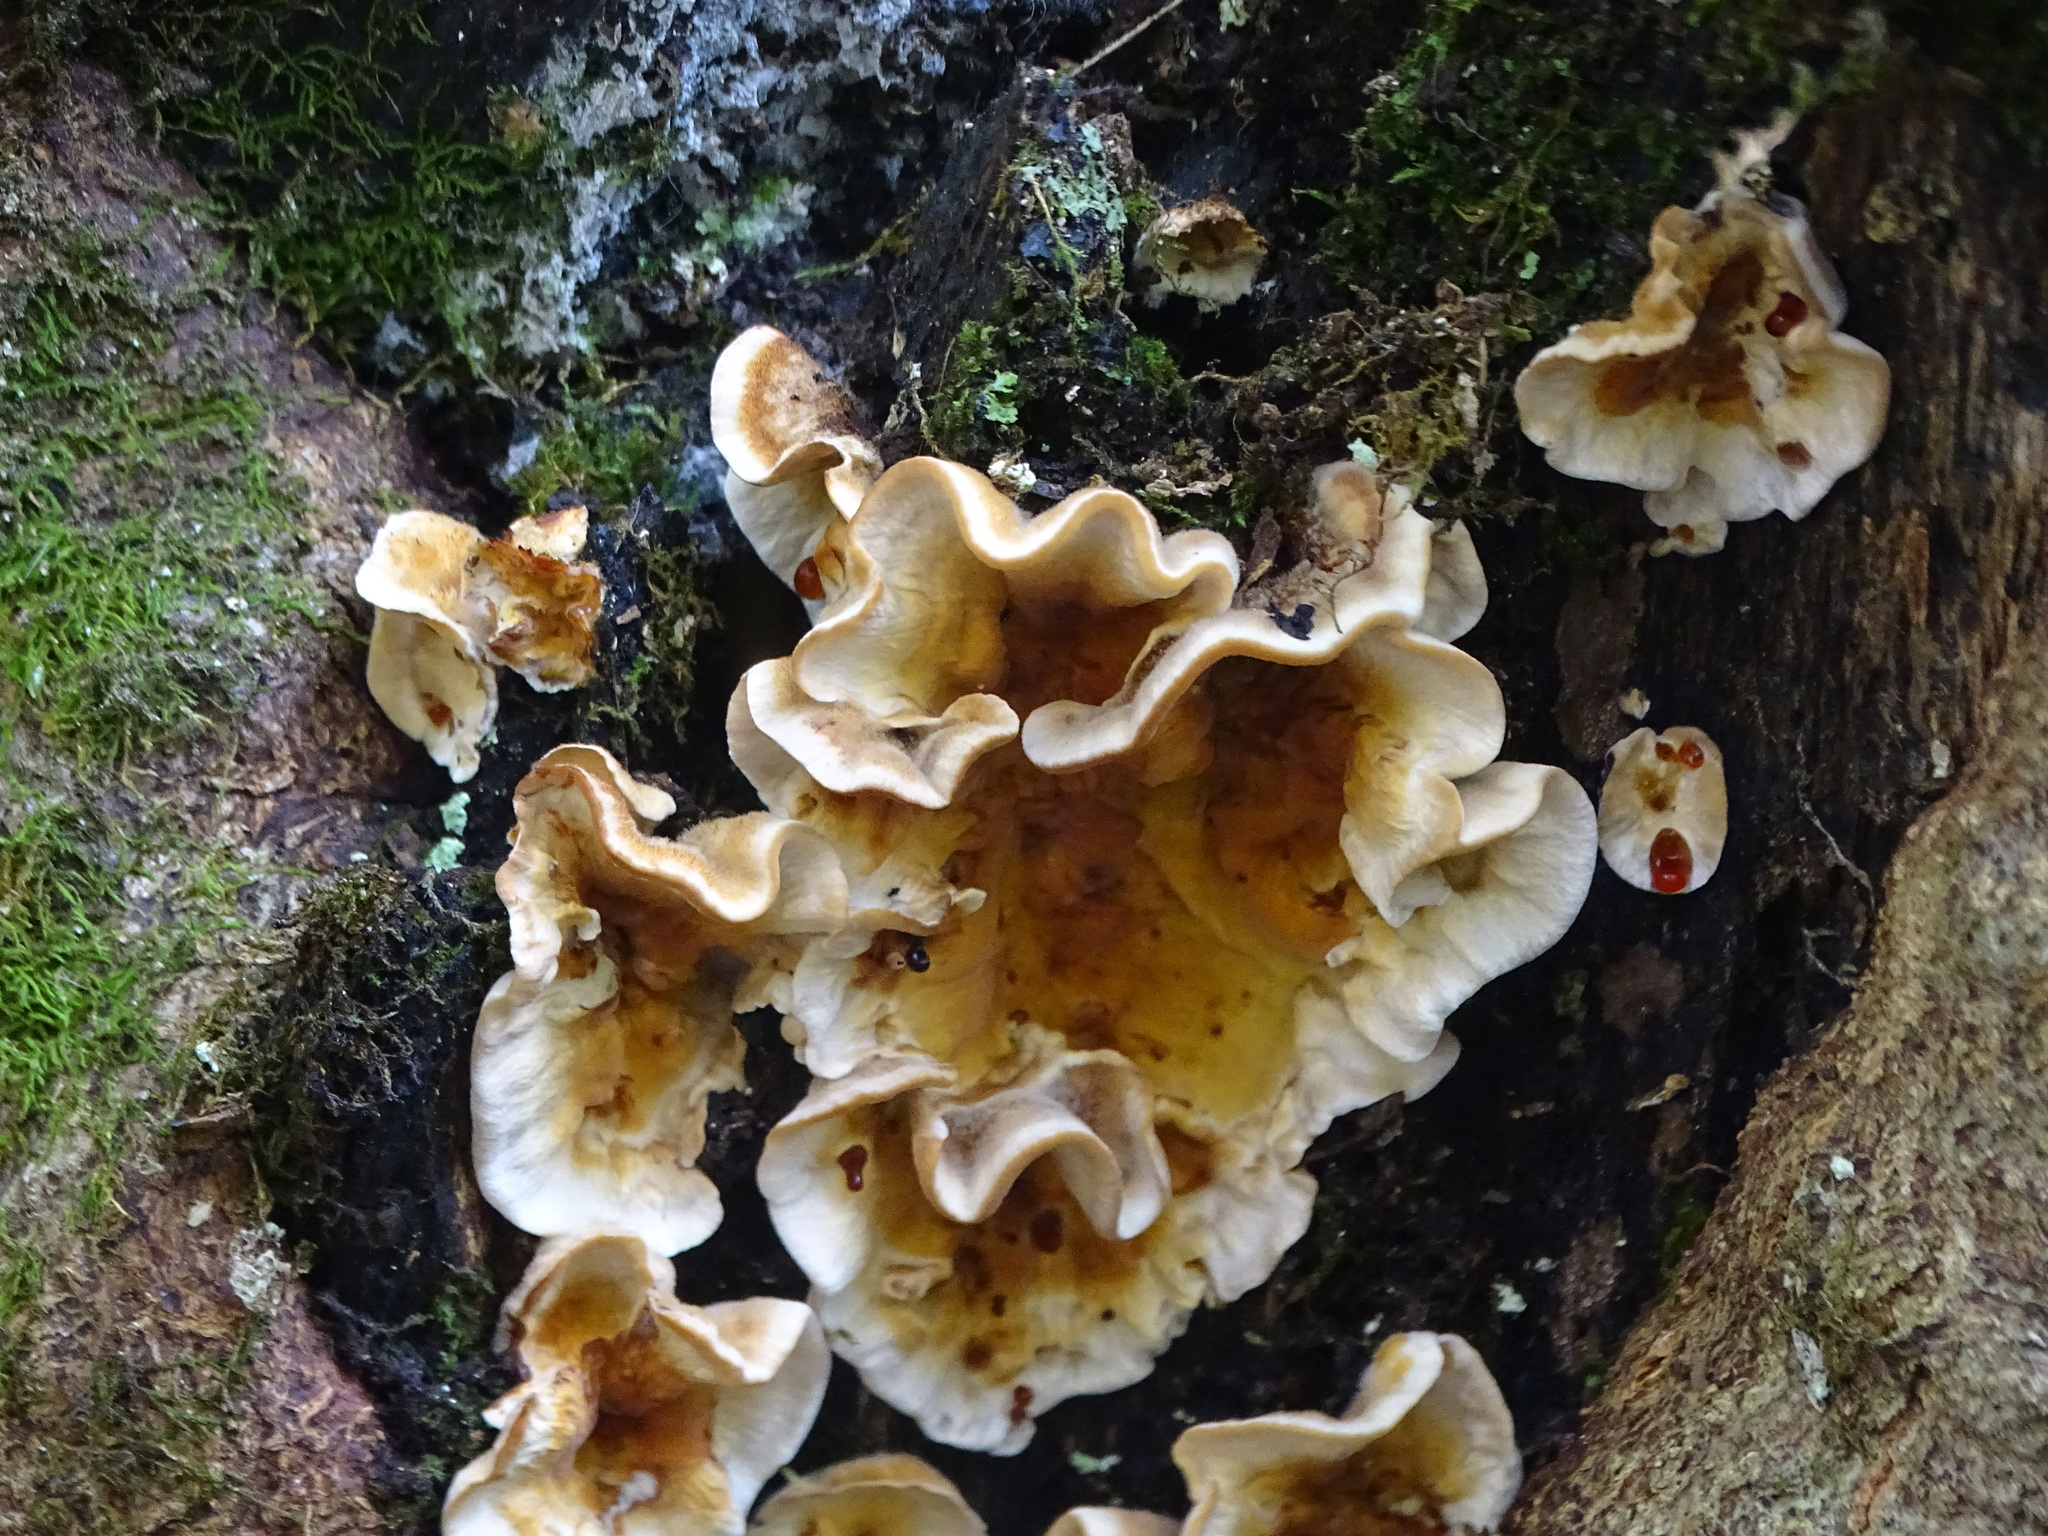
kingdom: Fungi
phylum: Basidiomycota
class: Agaricomycetes
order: Russulales
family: Stereaceae
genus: Stereum
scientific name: Stereum gausapatum
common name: Bleeding oak crust
